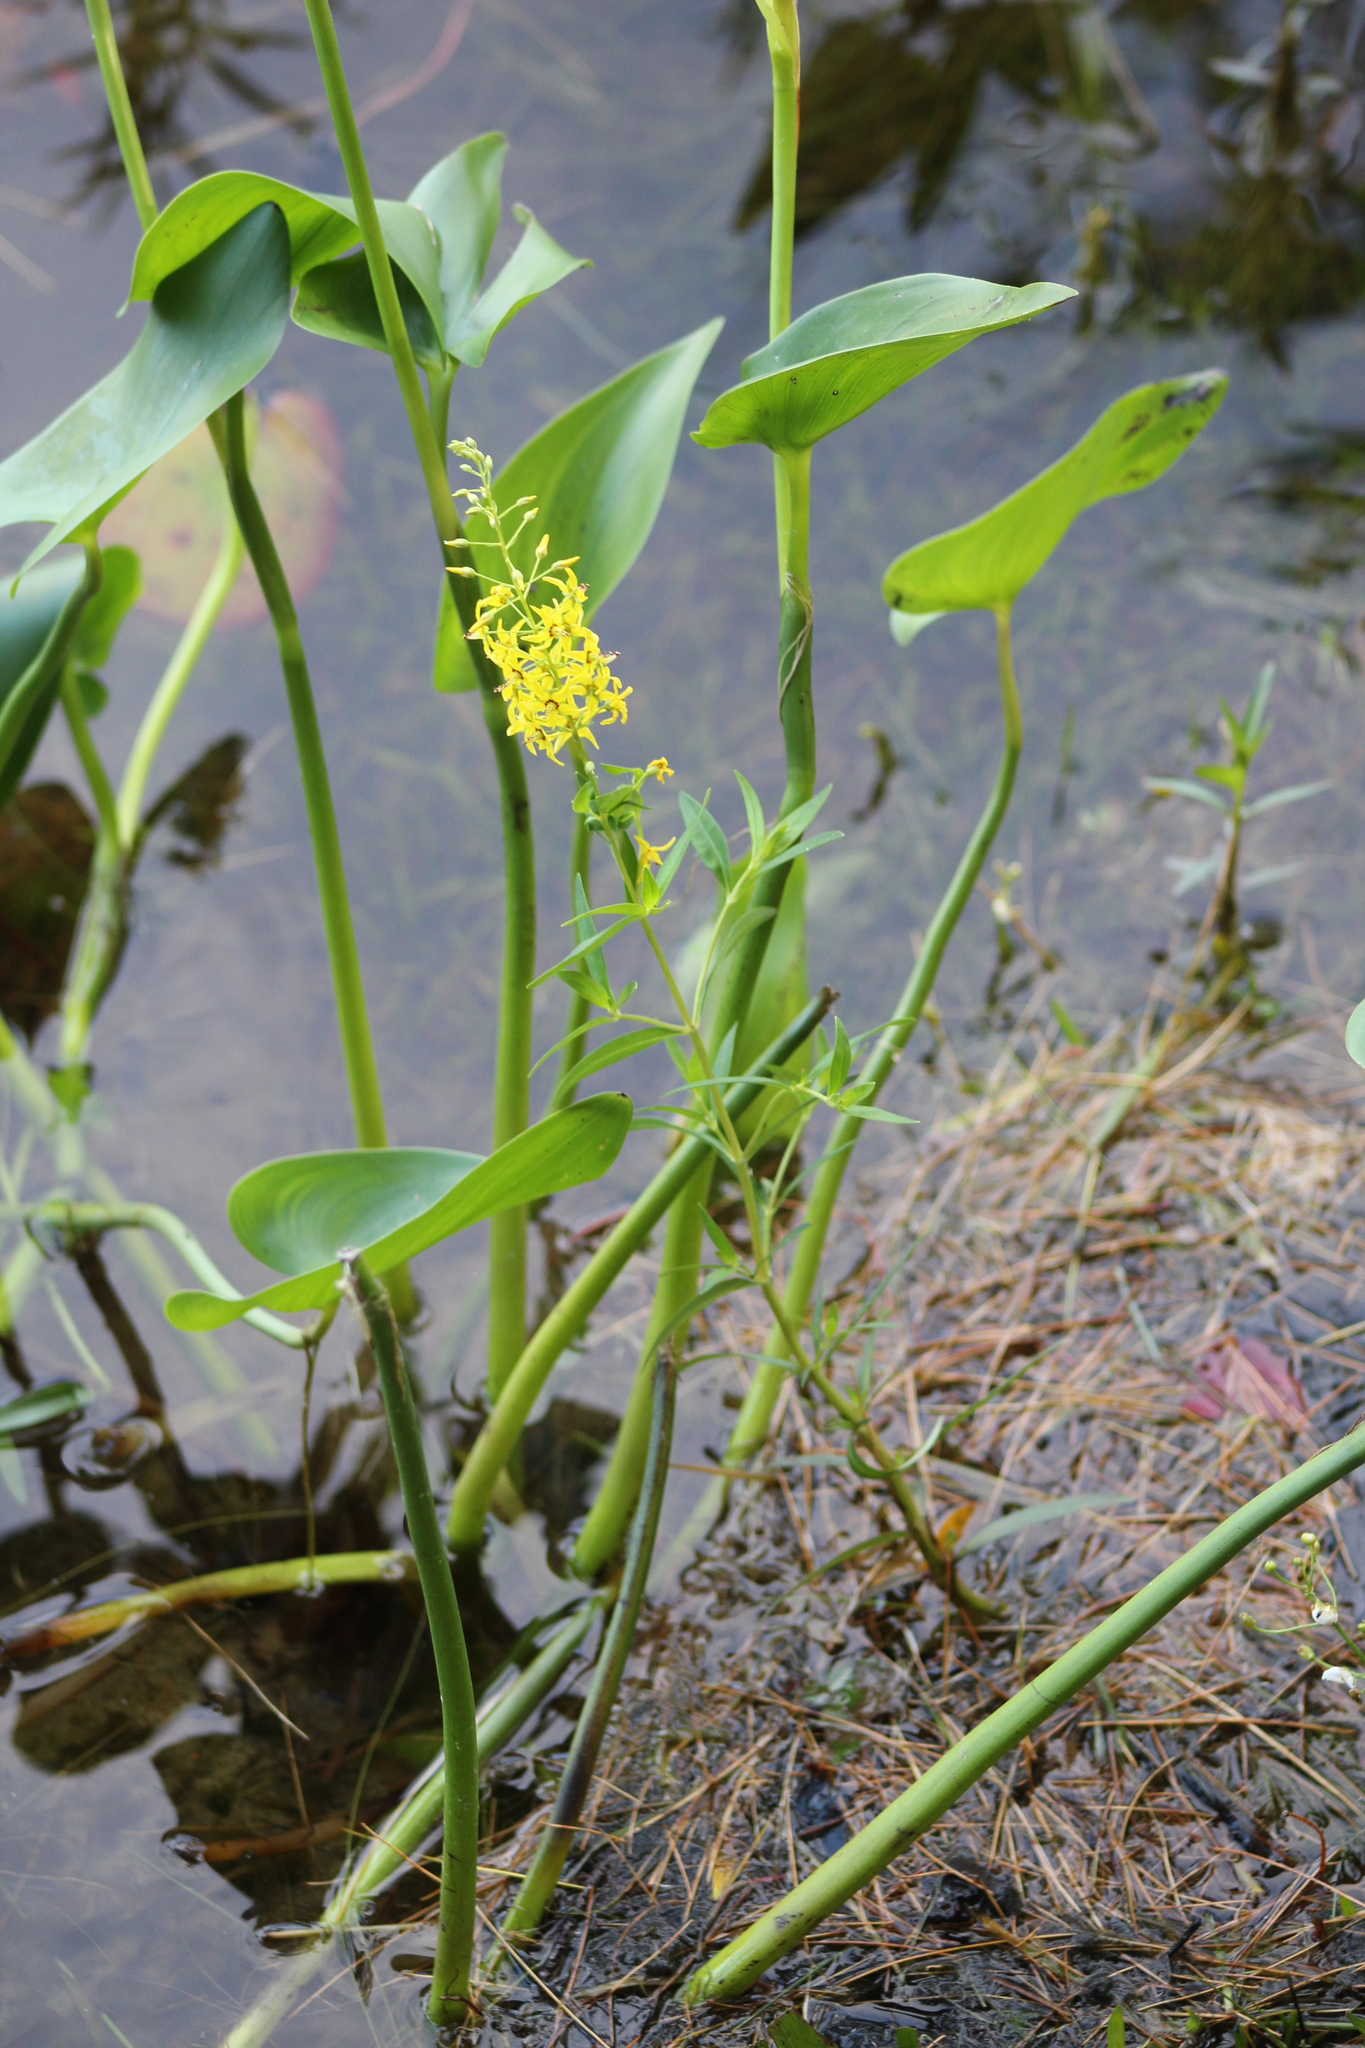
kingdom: Plantae
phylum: Tracheophyta
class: Magnoliopsida
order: Ericales
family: Primulaceae
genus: Lysimachia
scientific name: Lysimachia terrestris
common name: Lake loosestrife
